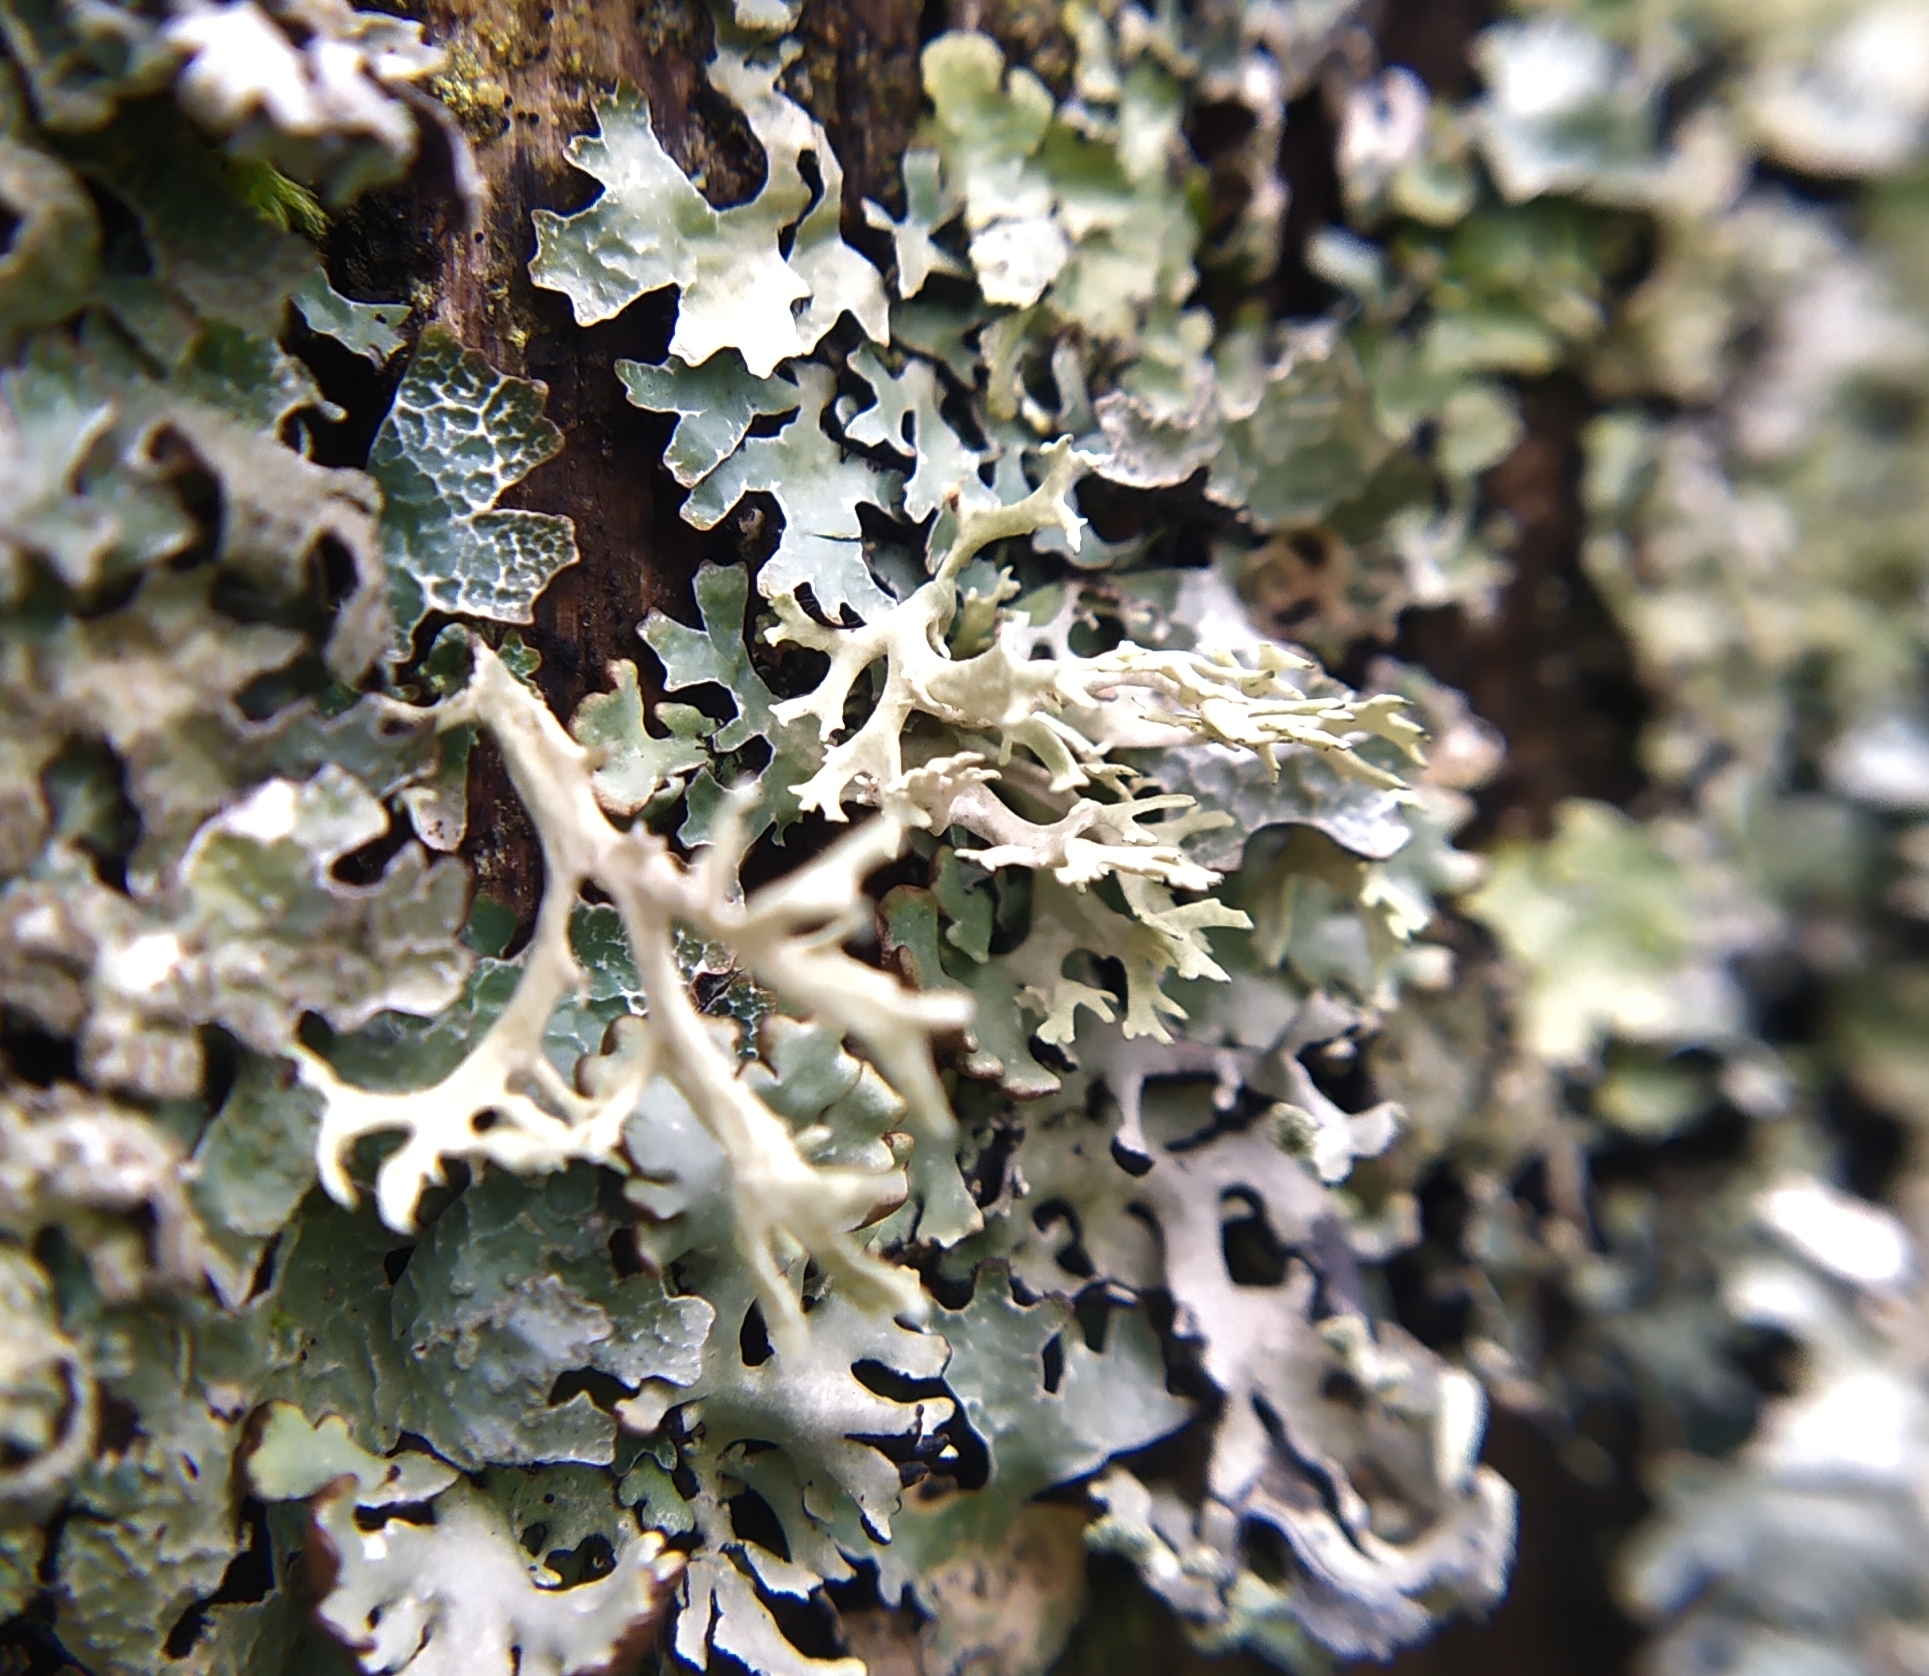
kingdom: Fungi
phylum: Ascomycota
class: Lecanoromycetes
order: Lecanorales
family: Parmeliaceae
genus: Evernia
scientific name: Evernia prunastri
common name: Oak moss
